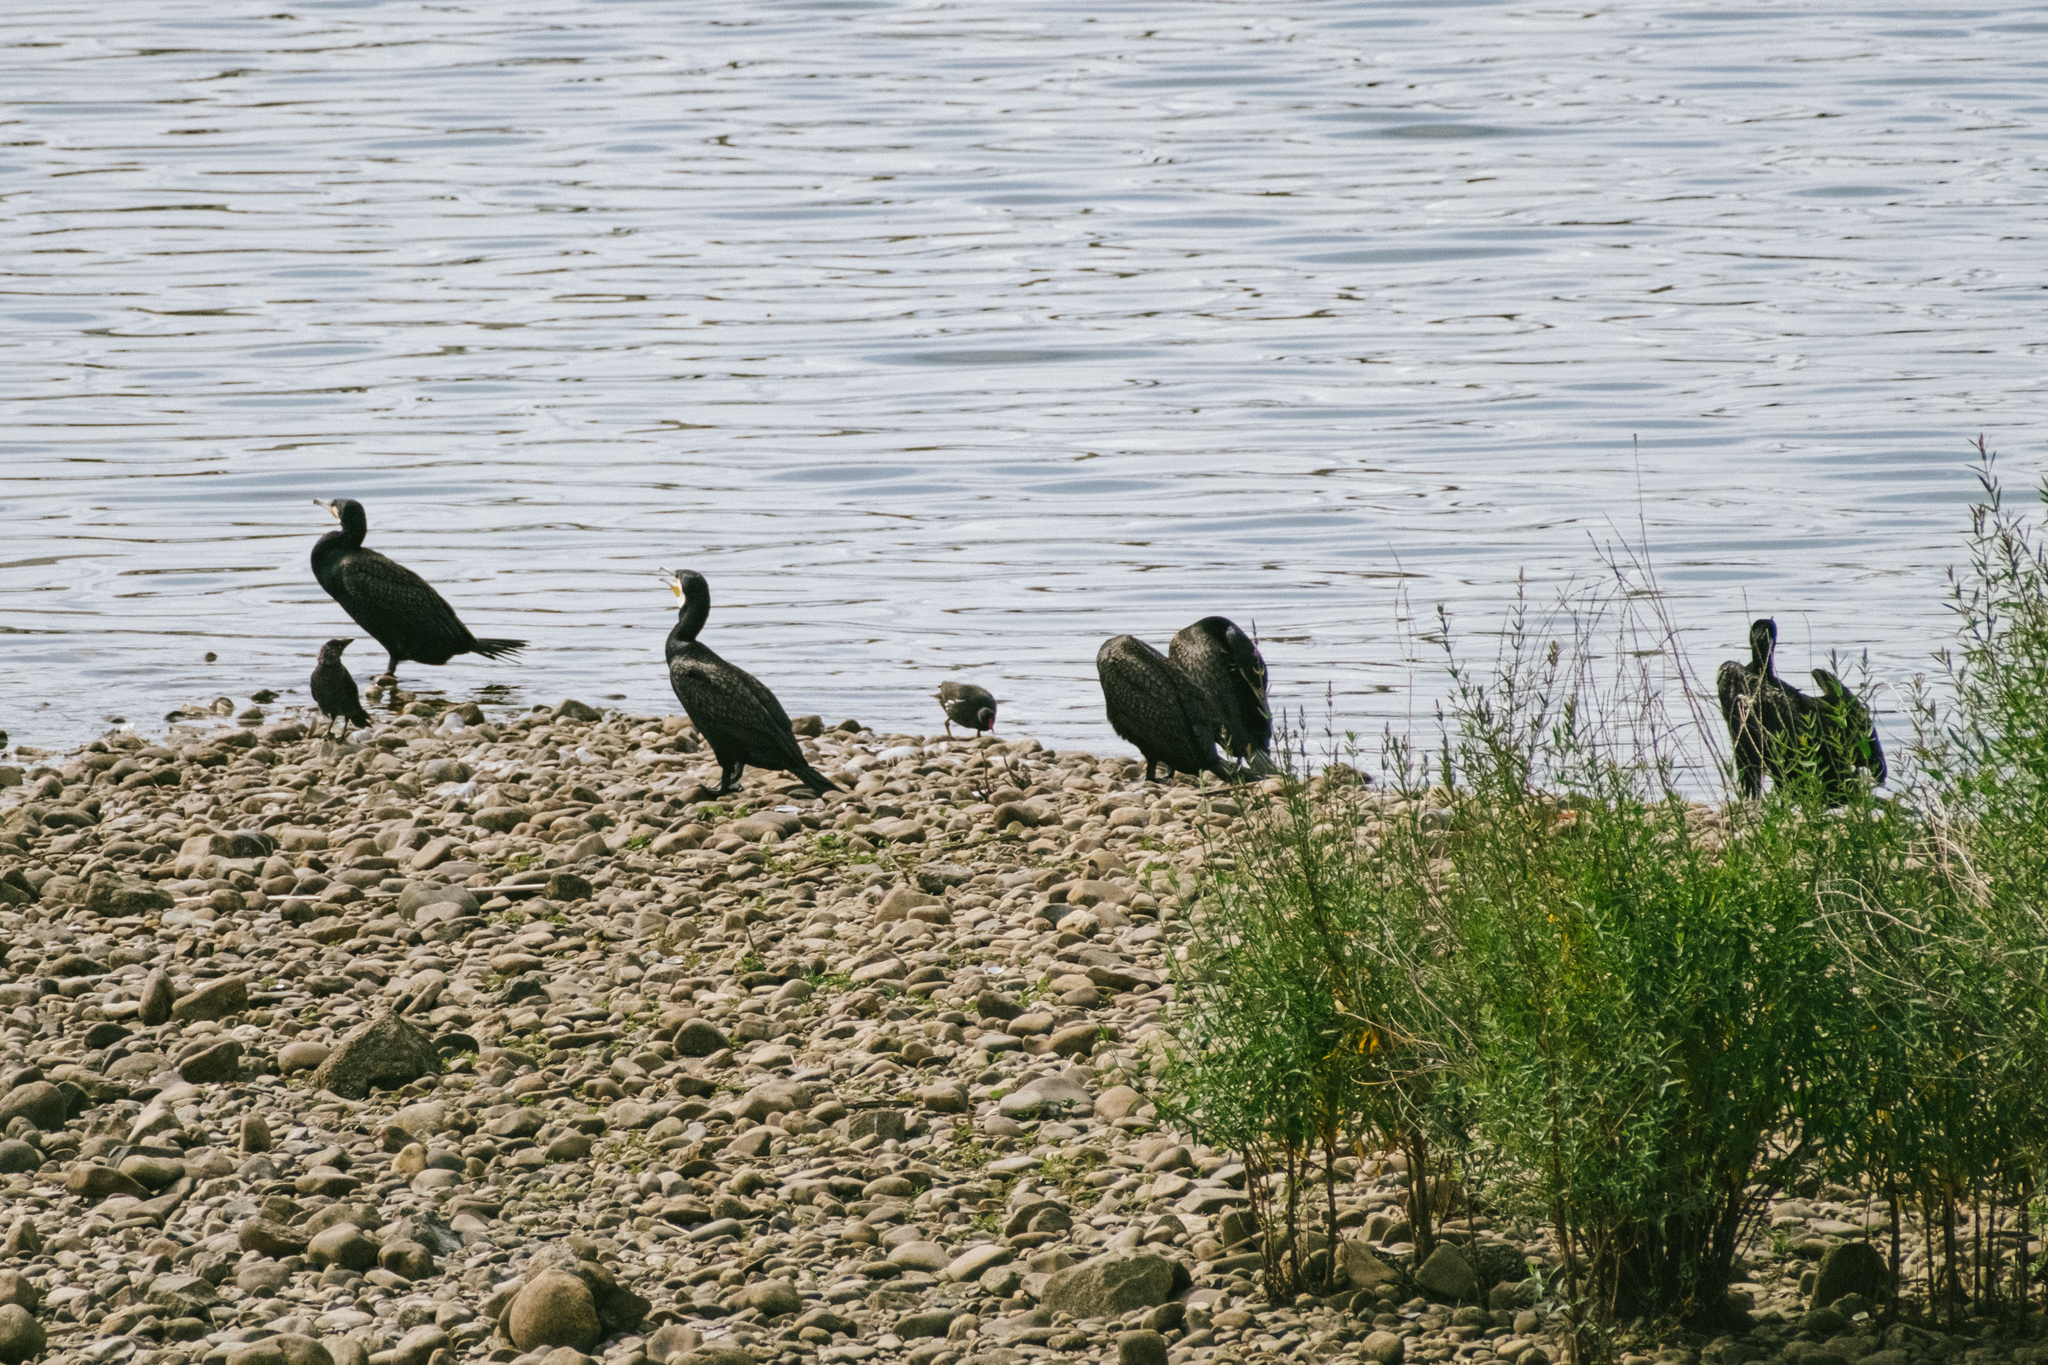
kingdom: Animalia
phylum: Chordata
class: Aves
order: Suliformes
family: Phalacrocoracidae
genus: Phalacrocorax
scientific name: Phalacrocorax carbo
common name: Great cormorant
